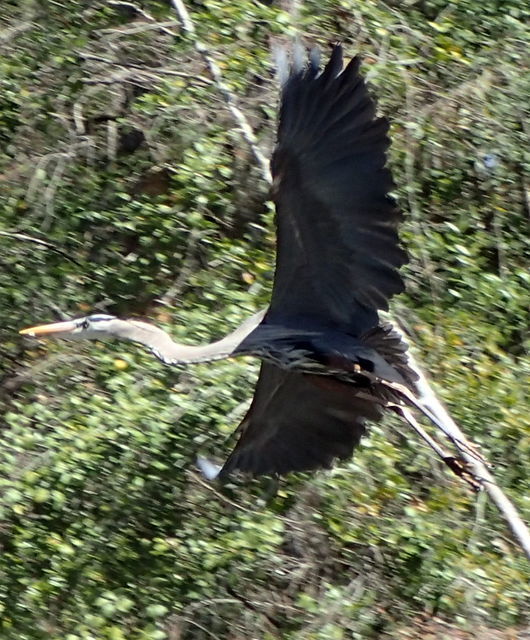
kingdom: Animalia
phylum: Chordata
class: Aves
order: Pelecaniformes
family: Ardeidae
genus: Ardea
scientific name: Ardea herodias
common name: Great blue heron
